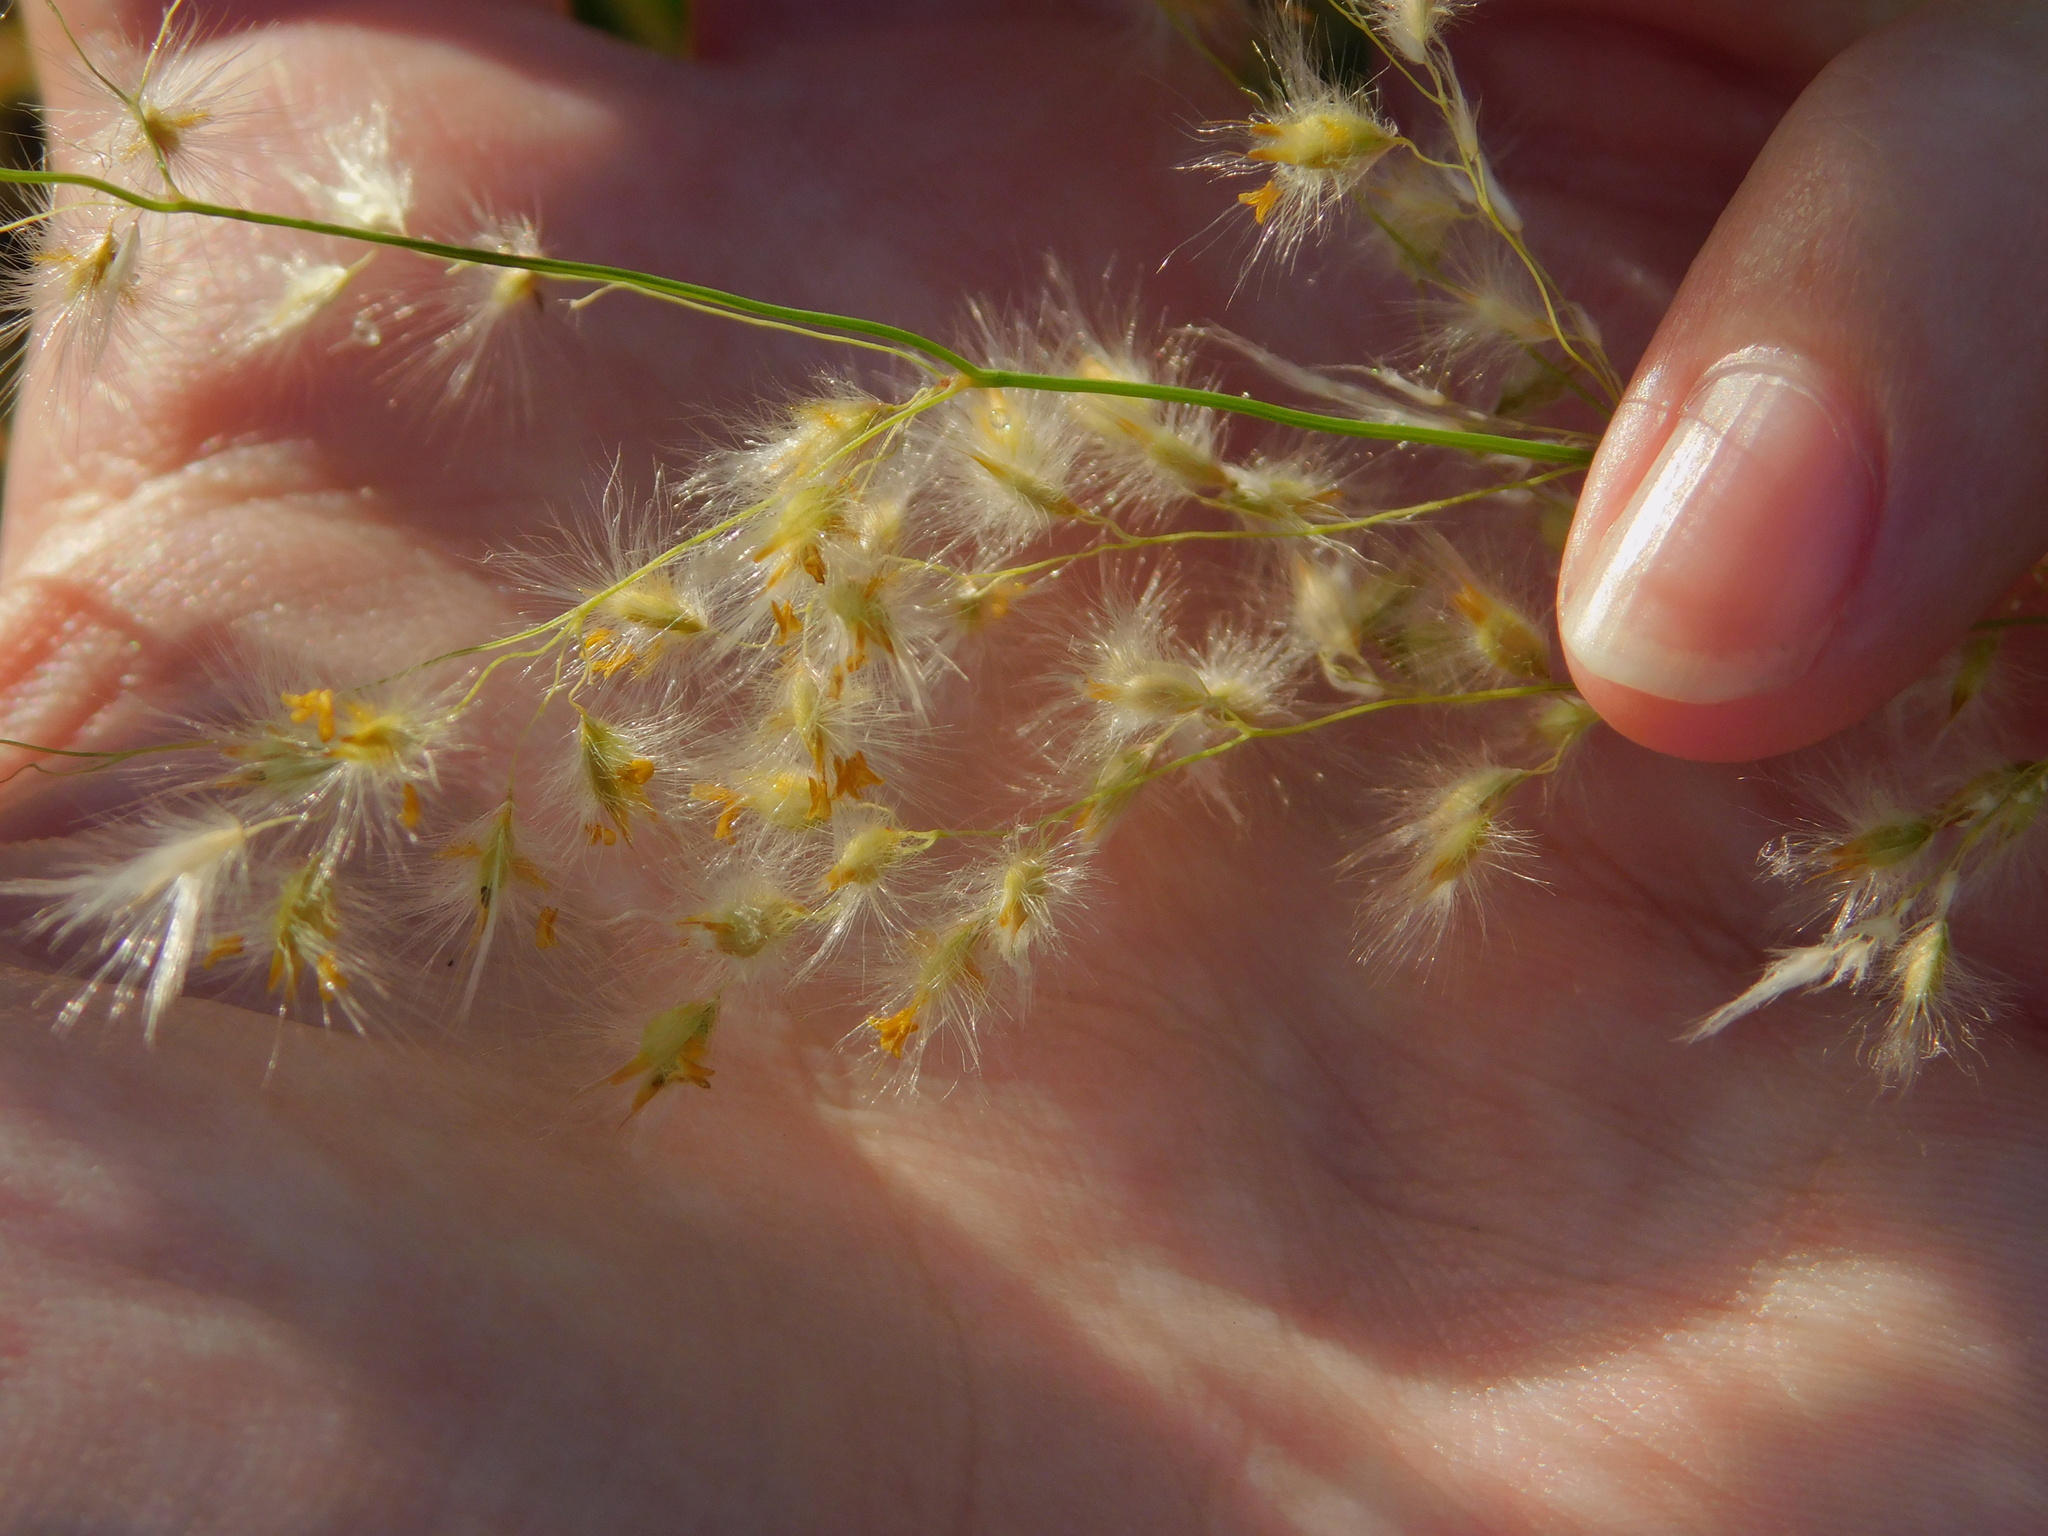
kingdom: Plantae
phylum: Tracheophyta
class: Liliopsida
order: Poales
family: Poaceae
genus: Melinis
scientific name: Melinis repens
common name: Rose natal grass
